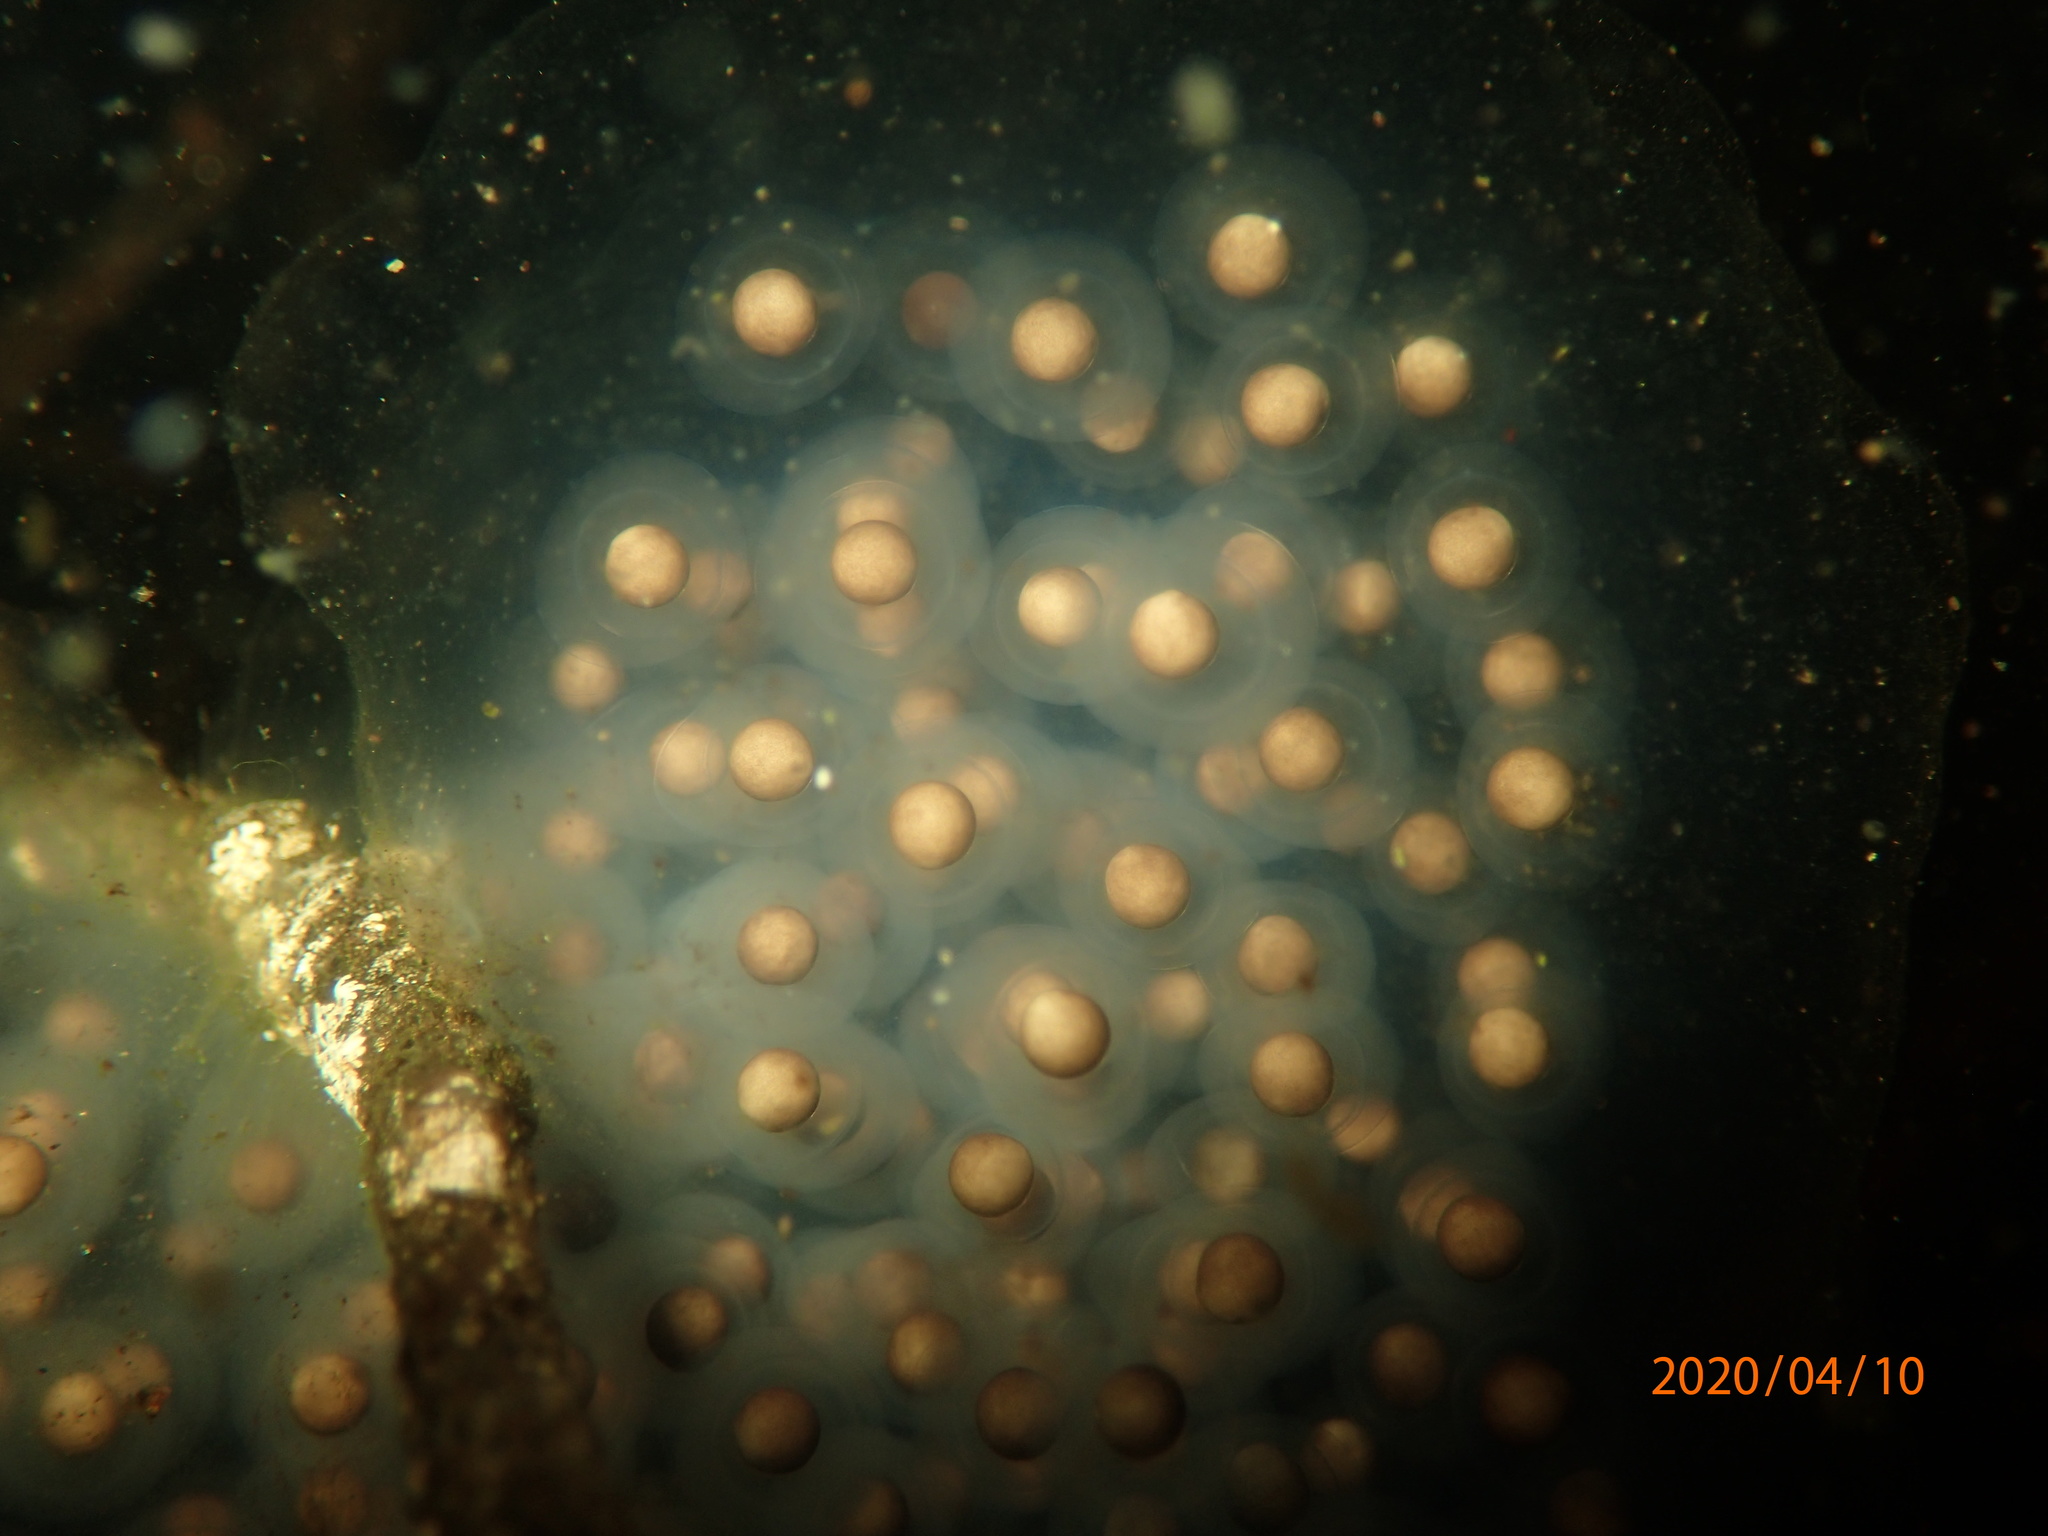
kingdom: Animalia
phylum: Chordata
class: Amphibia
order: Caudata
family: Ambystomatidae
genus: Ambystoma
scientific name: Ambystoma maculatum
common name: Spotted salamander
